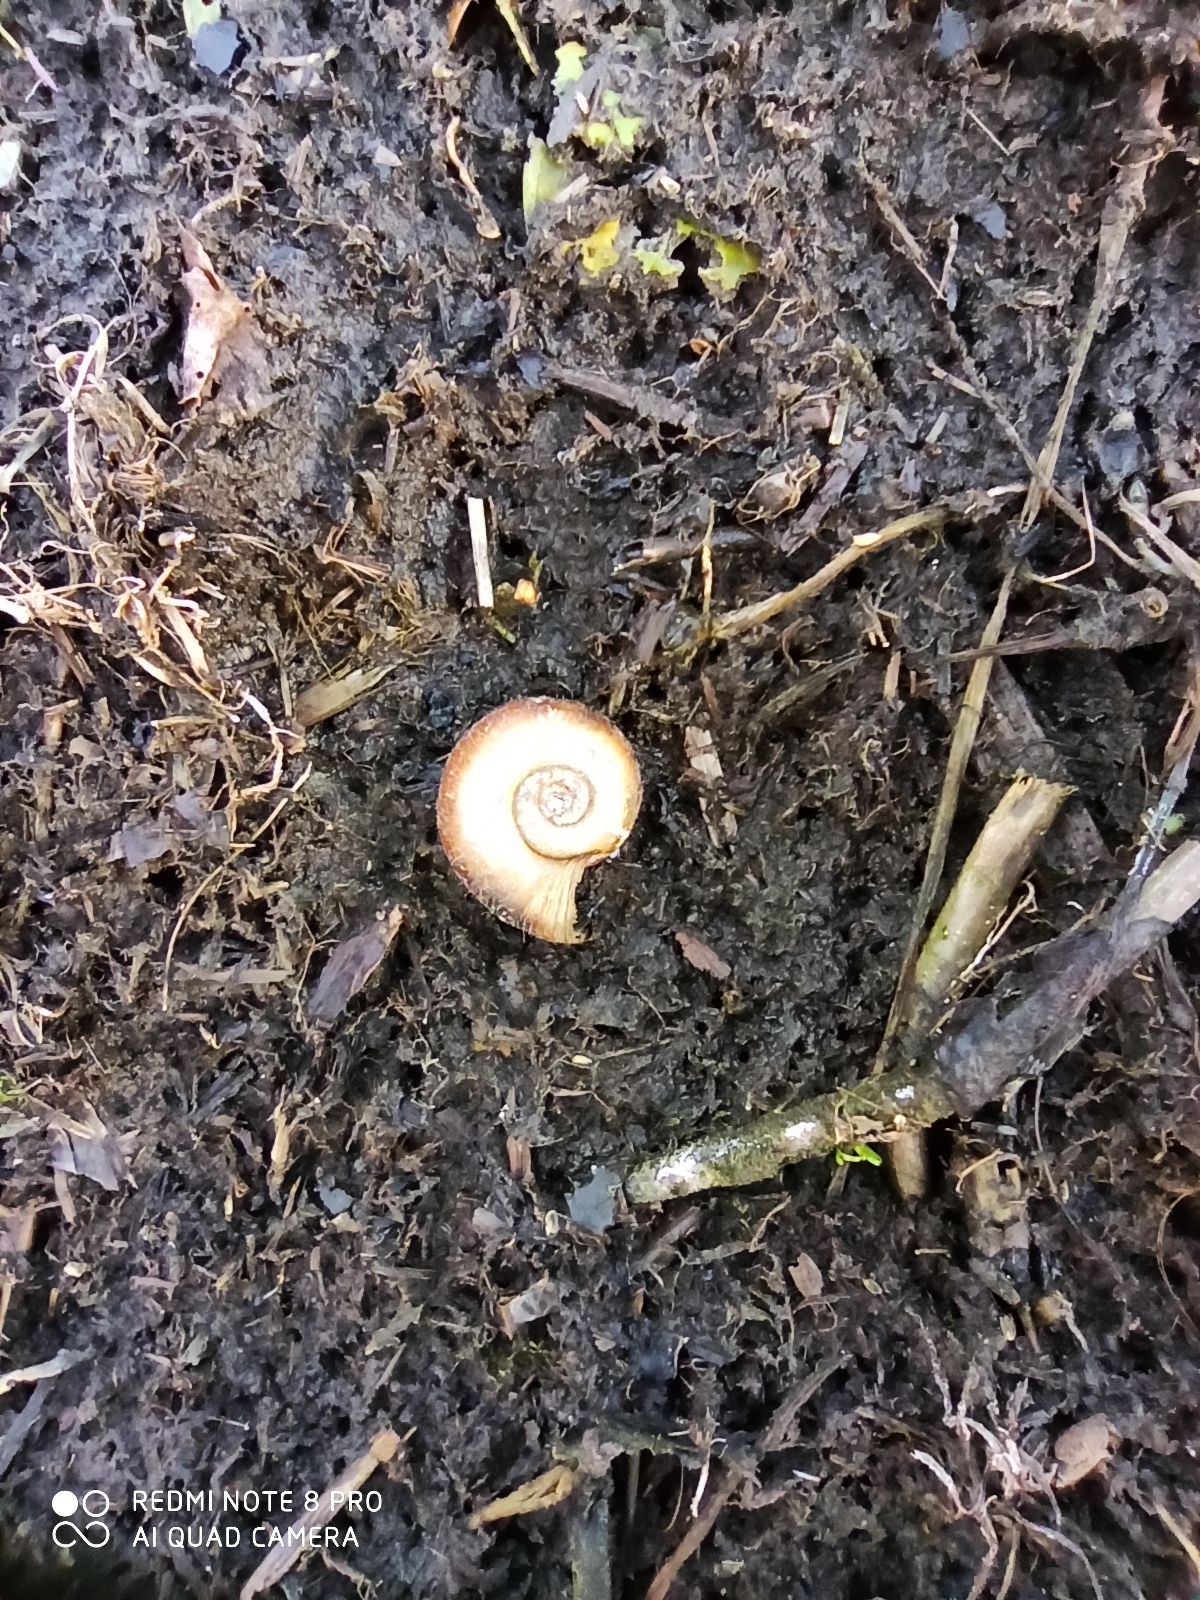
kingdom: Animalia
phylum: Mollusca
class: Gastropoda
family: Planorbidae
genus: Planorbarius
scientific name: Planorbarius corneus
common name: Great ramshorn
